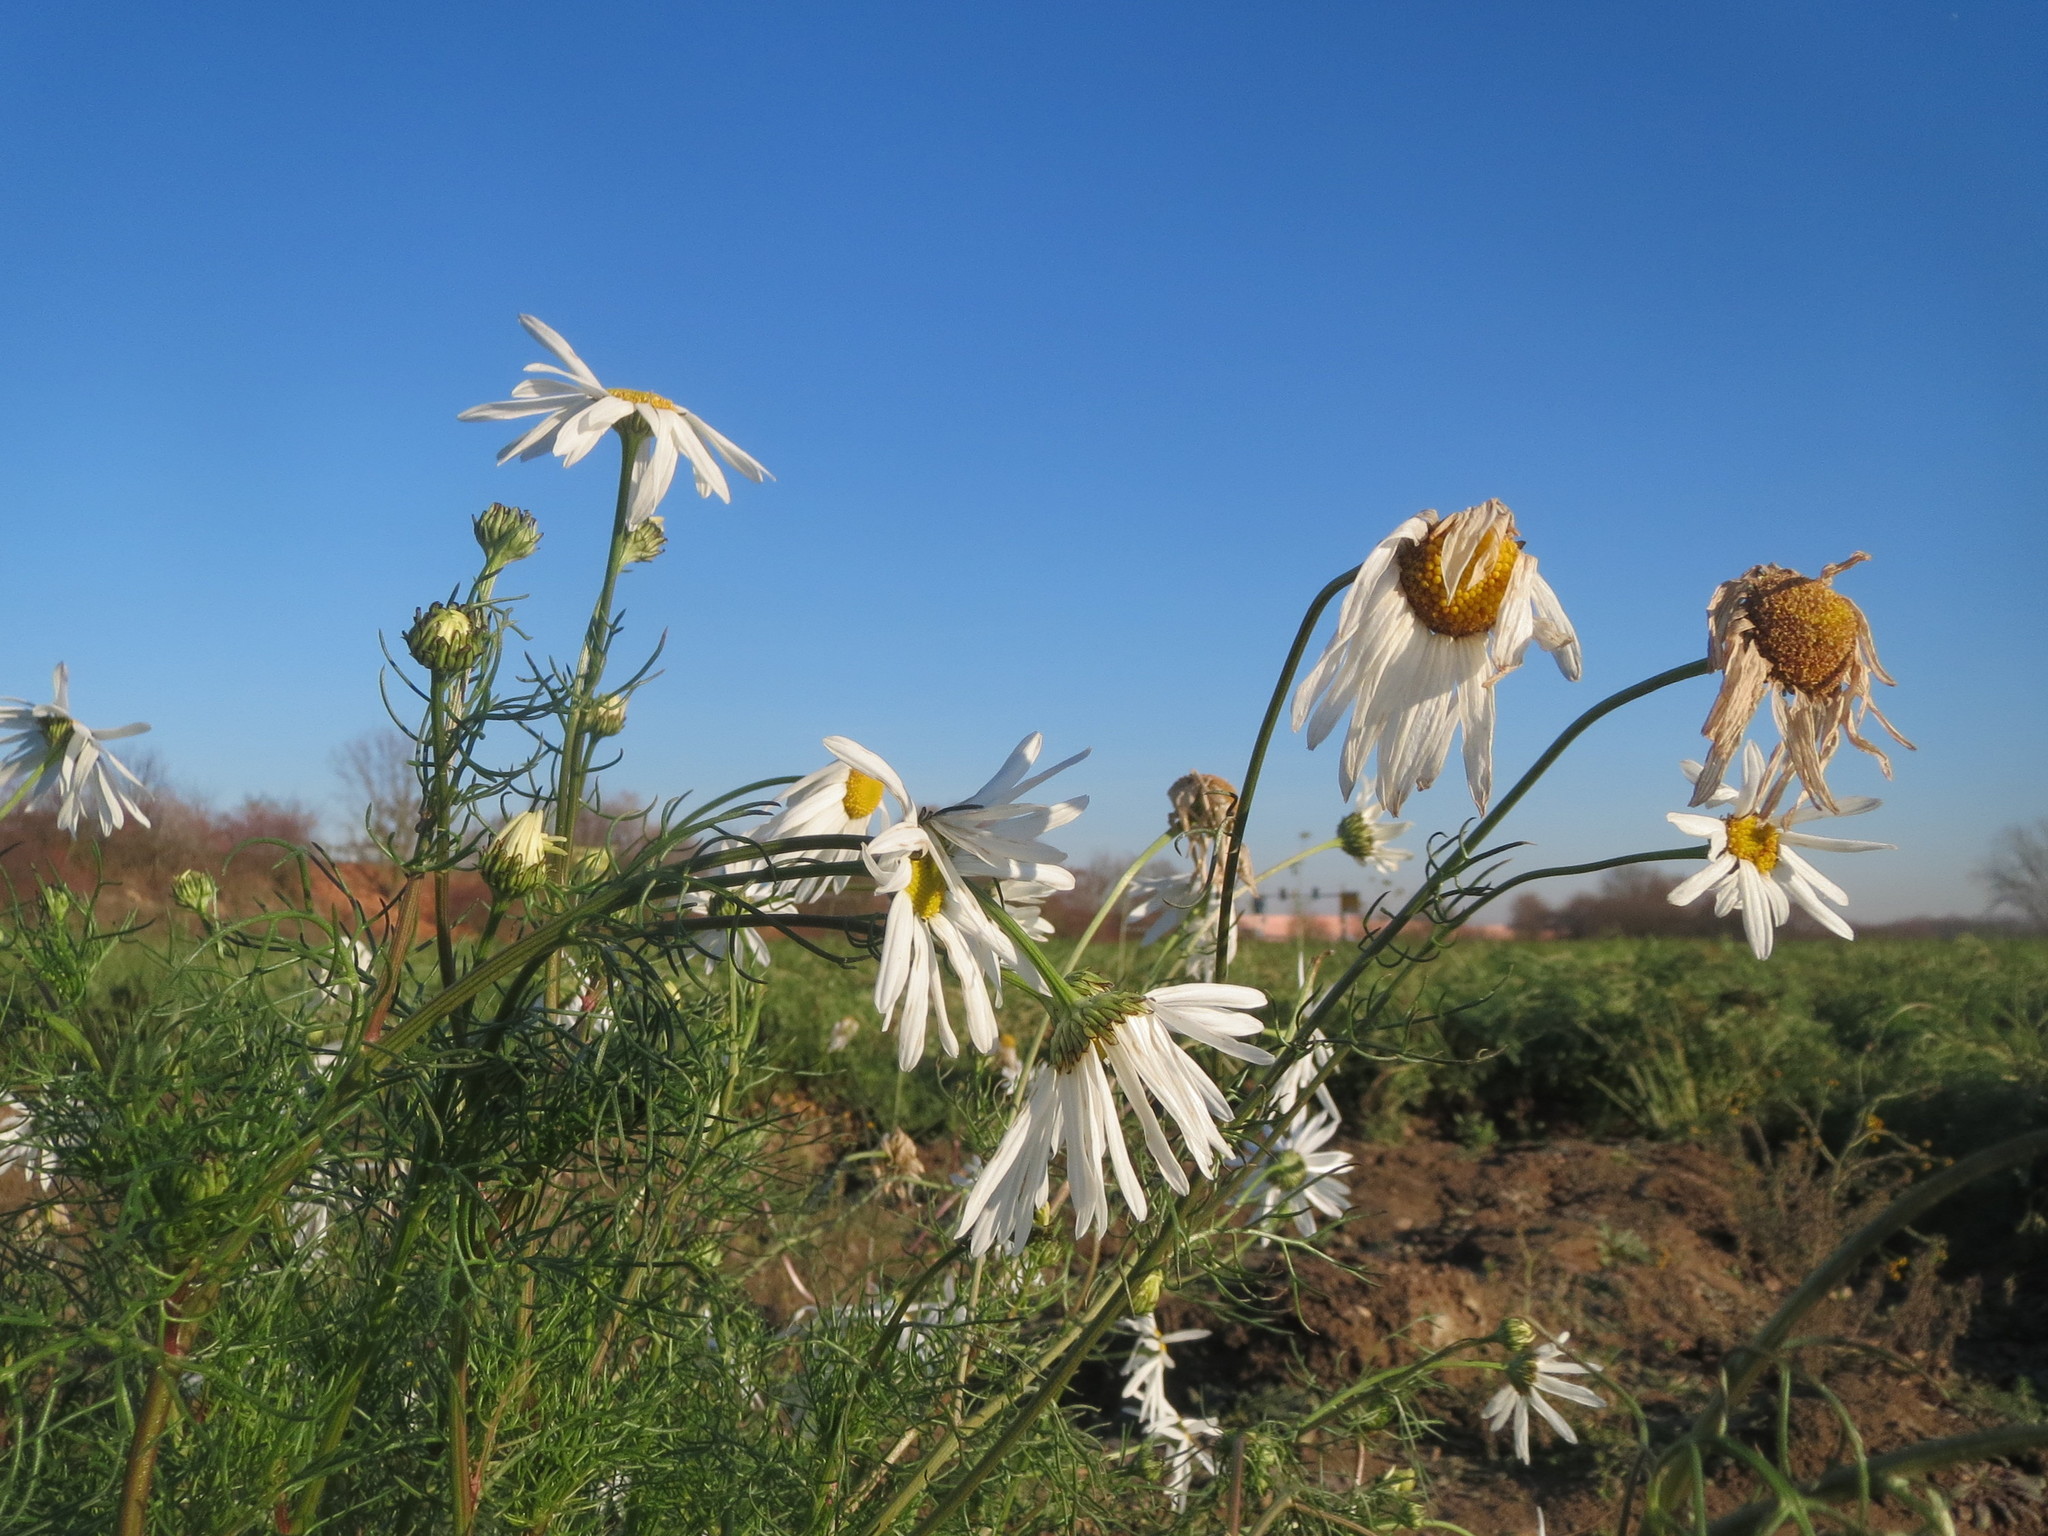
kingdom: Plantae
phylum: Tracheophyta
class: Magnoliopsida
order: Asterales
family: Asteraceae
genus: Tripleurospermum
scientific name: Tripleurospermum inodorum
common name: Scentless mayweed
